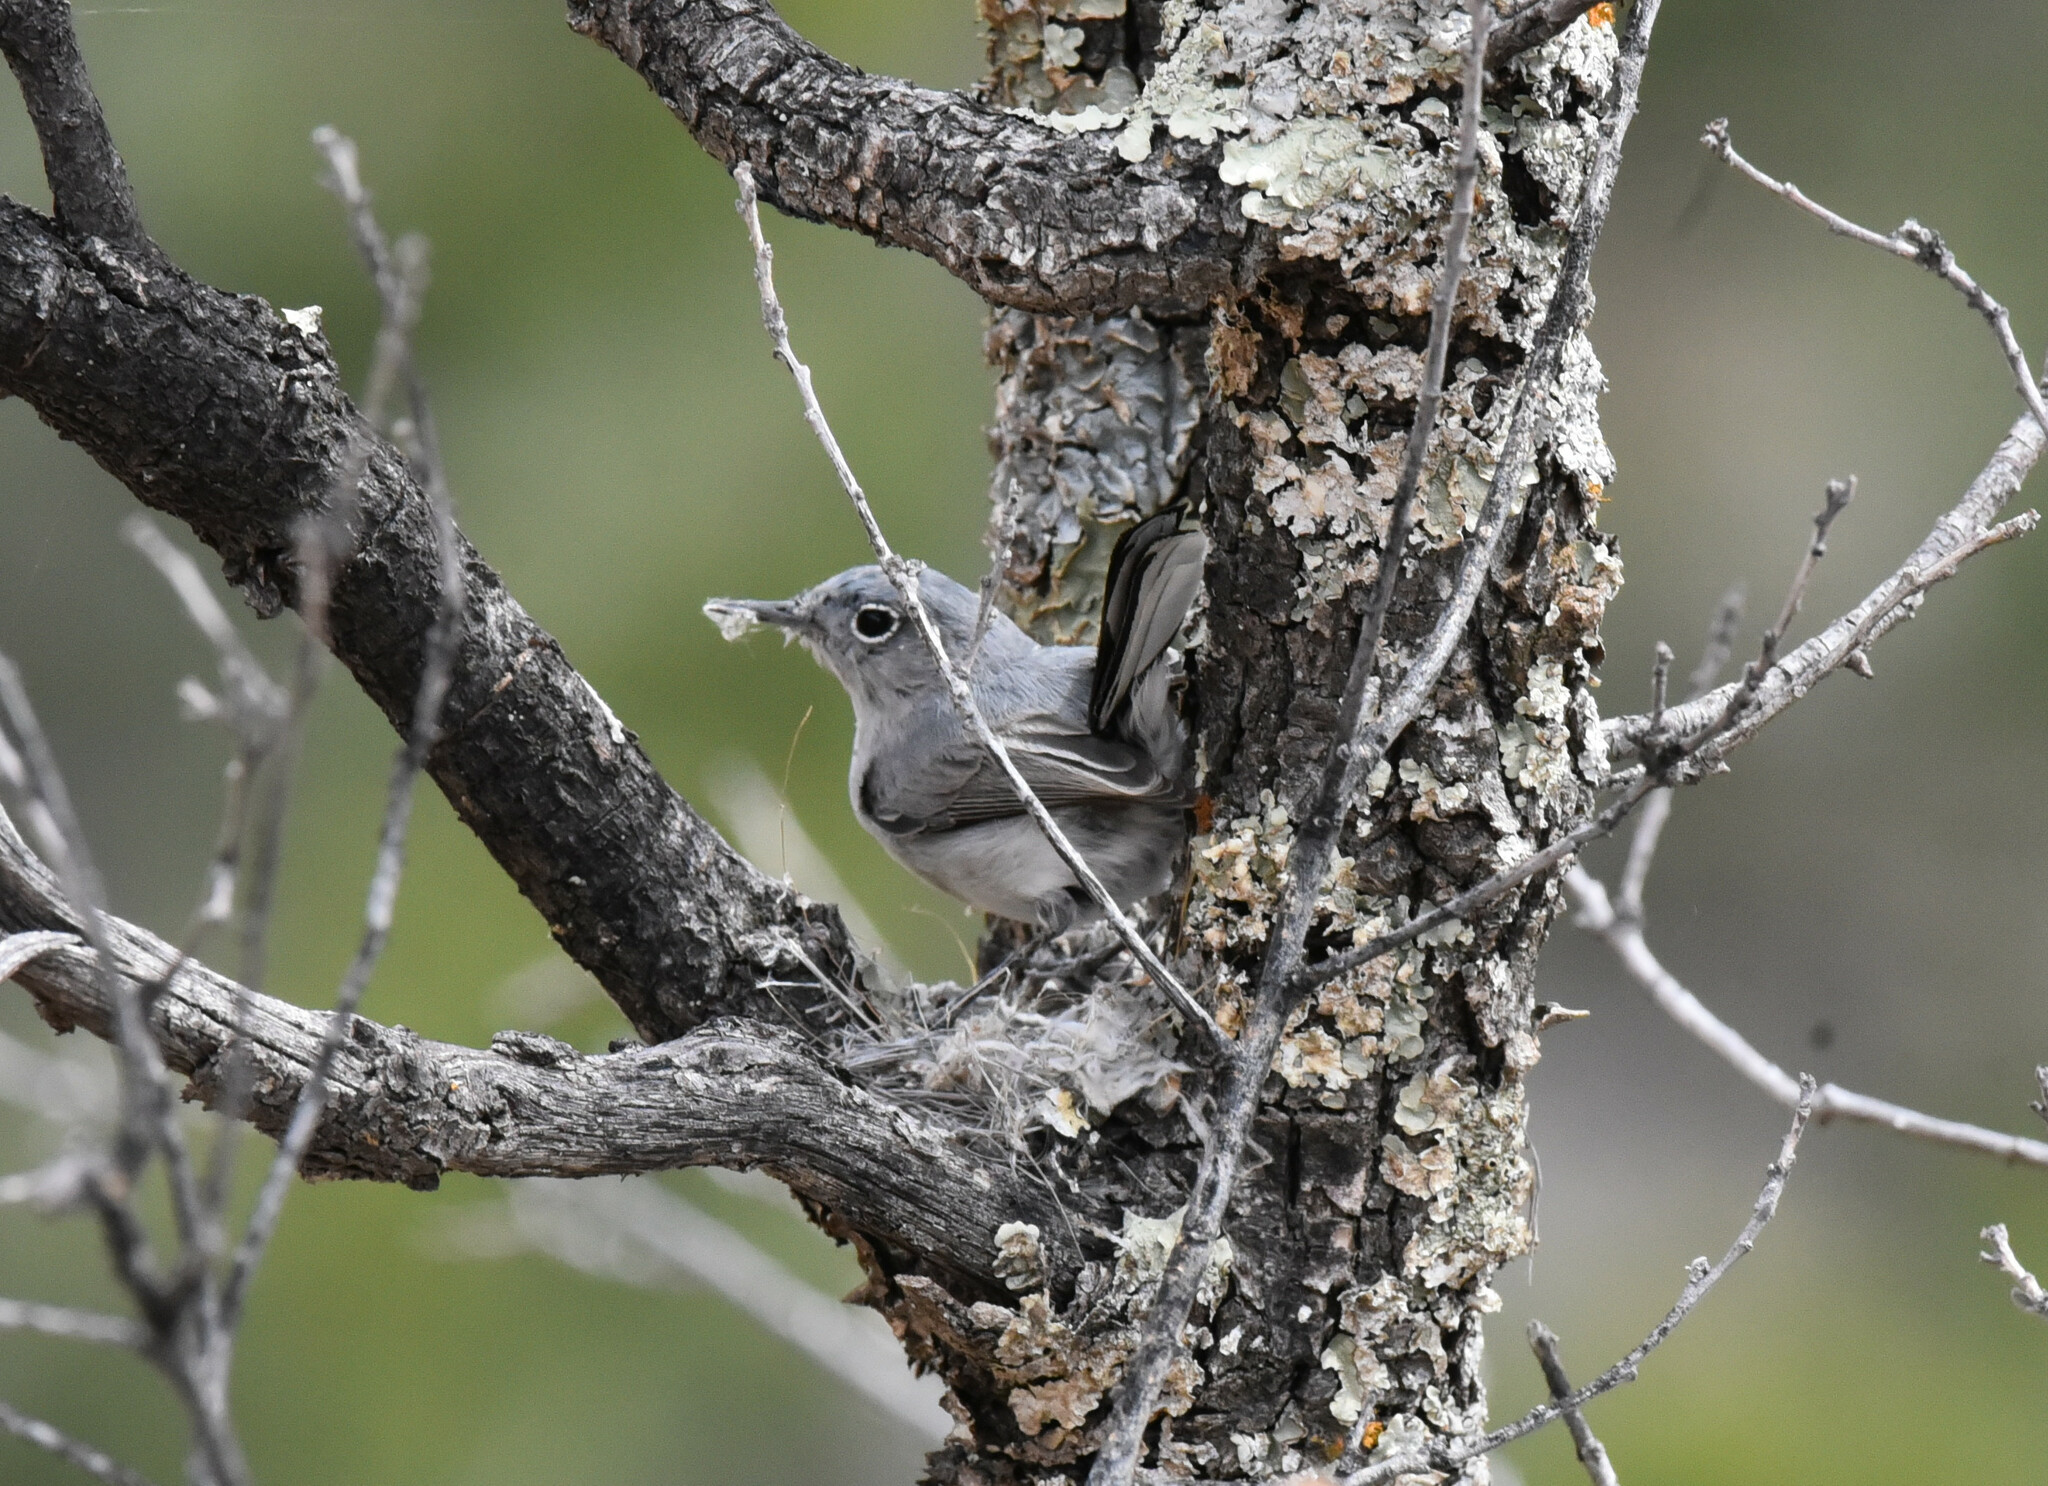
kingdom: Animalia
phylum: Chordata
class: Aves
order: Passeriformes
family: Polioptilidae
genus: Polioptila
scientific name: Polioptila caerulea
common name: Blue-gray gnatcatcher
